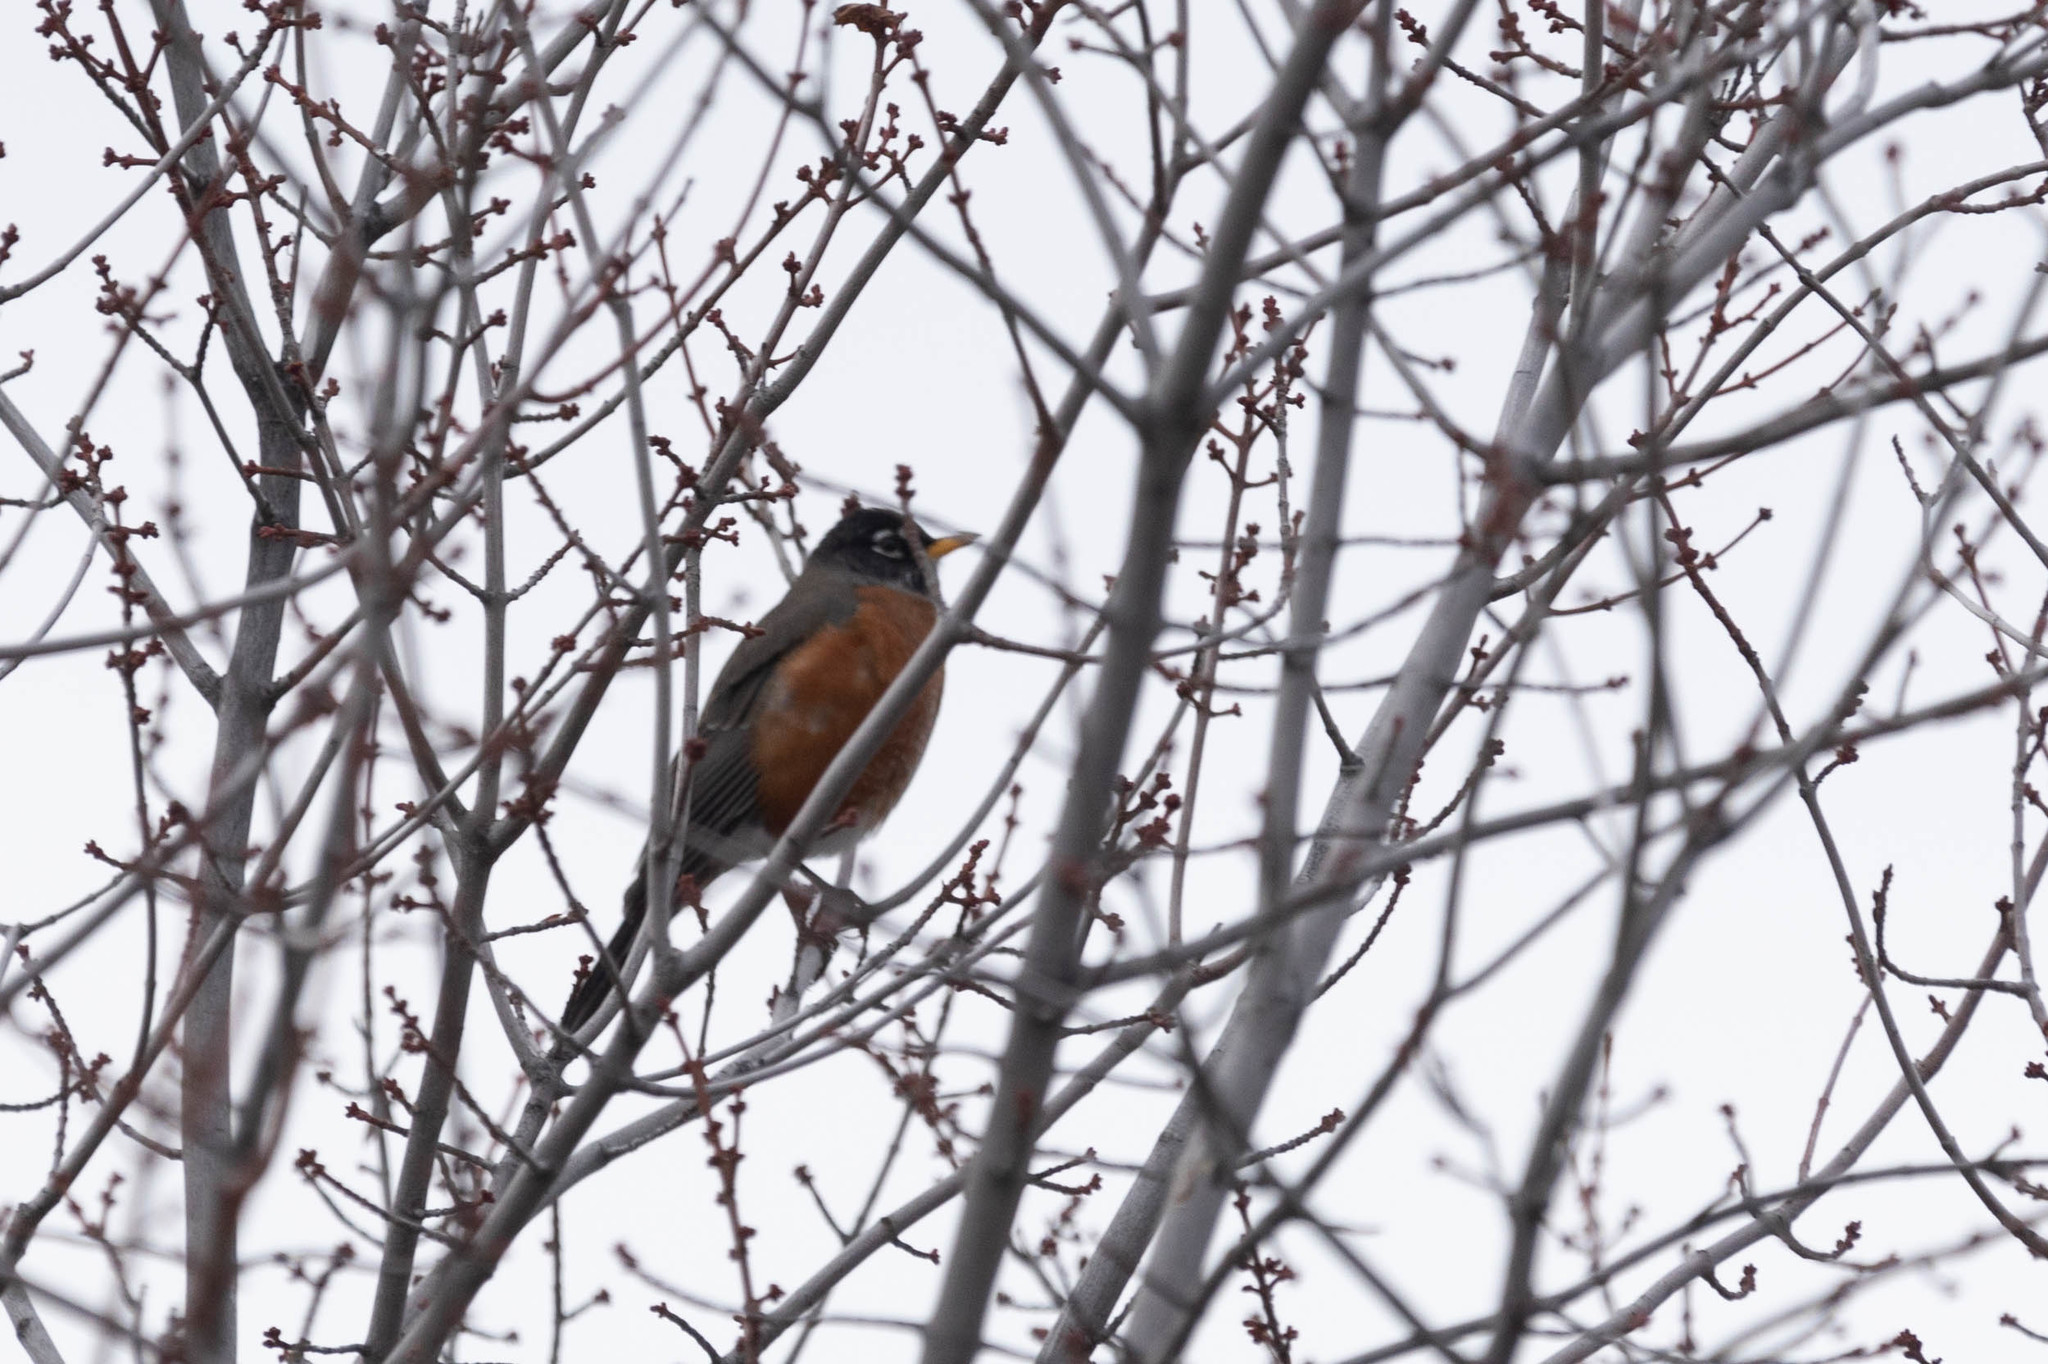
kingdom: Animalia
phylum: Chordata
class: Aves
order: Passeriformes
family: Turdidae
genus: Turdus
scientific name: Turdus migratorius
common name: American robin
